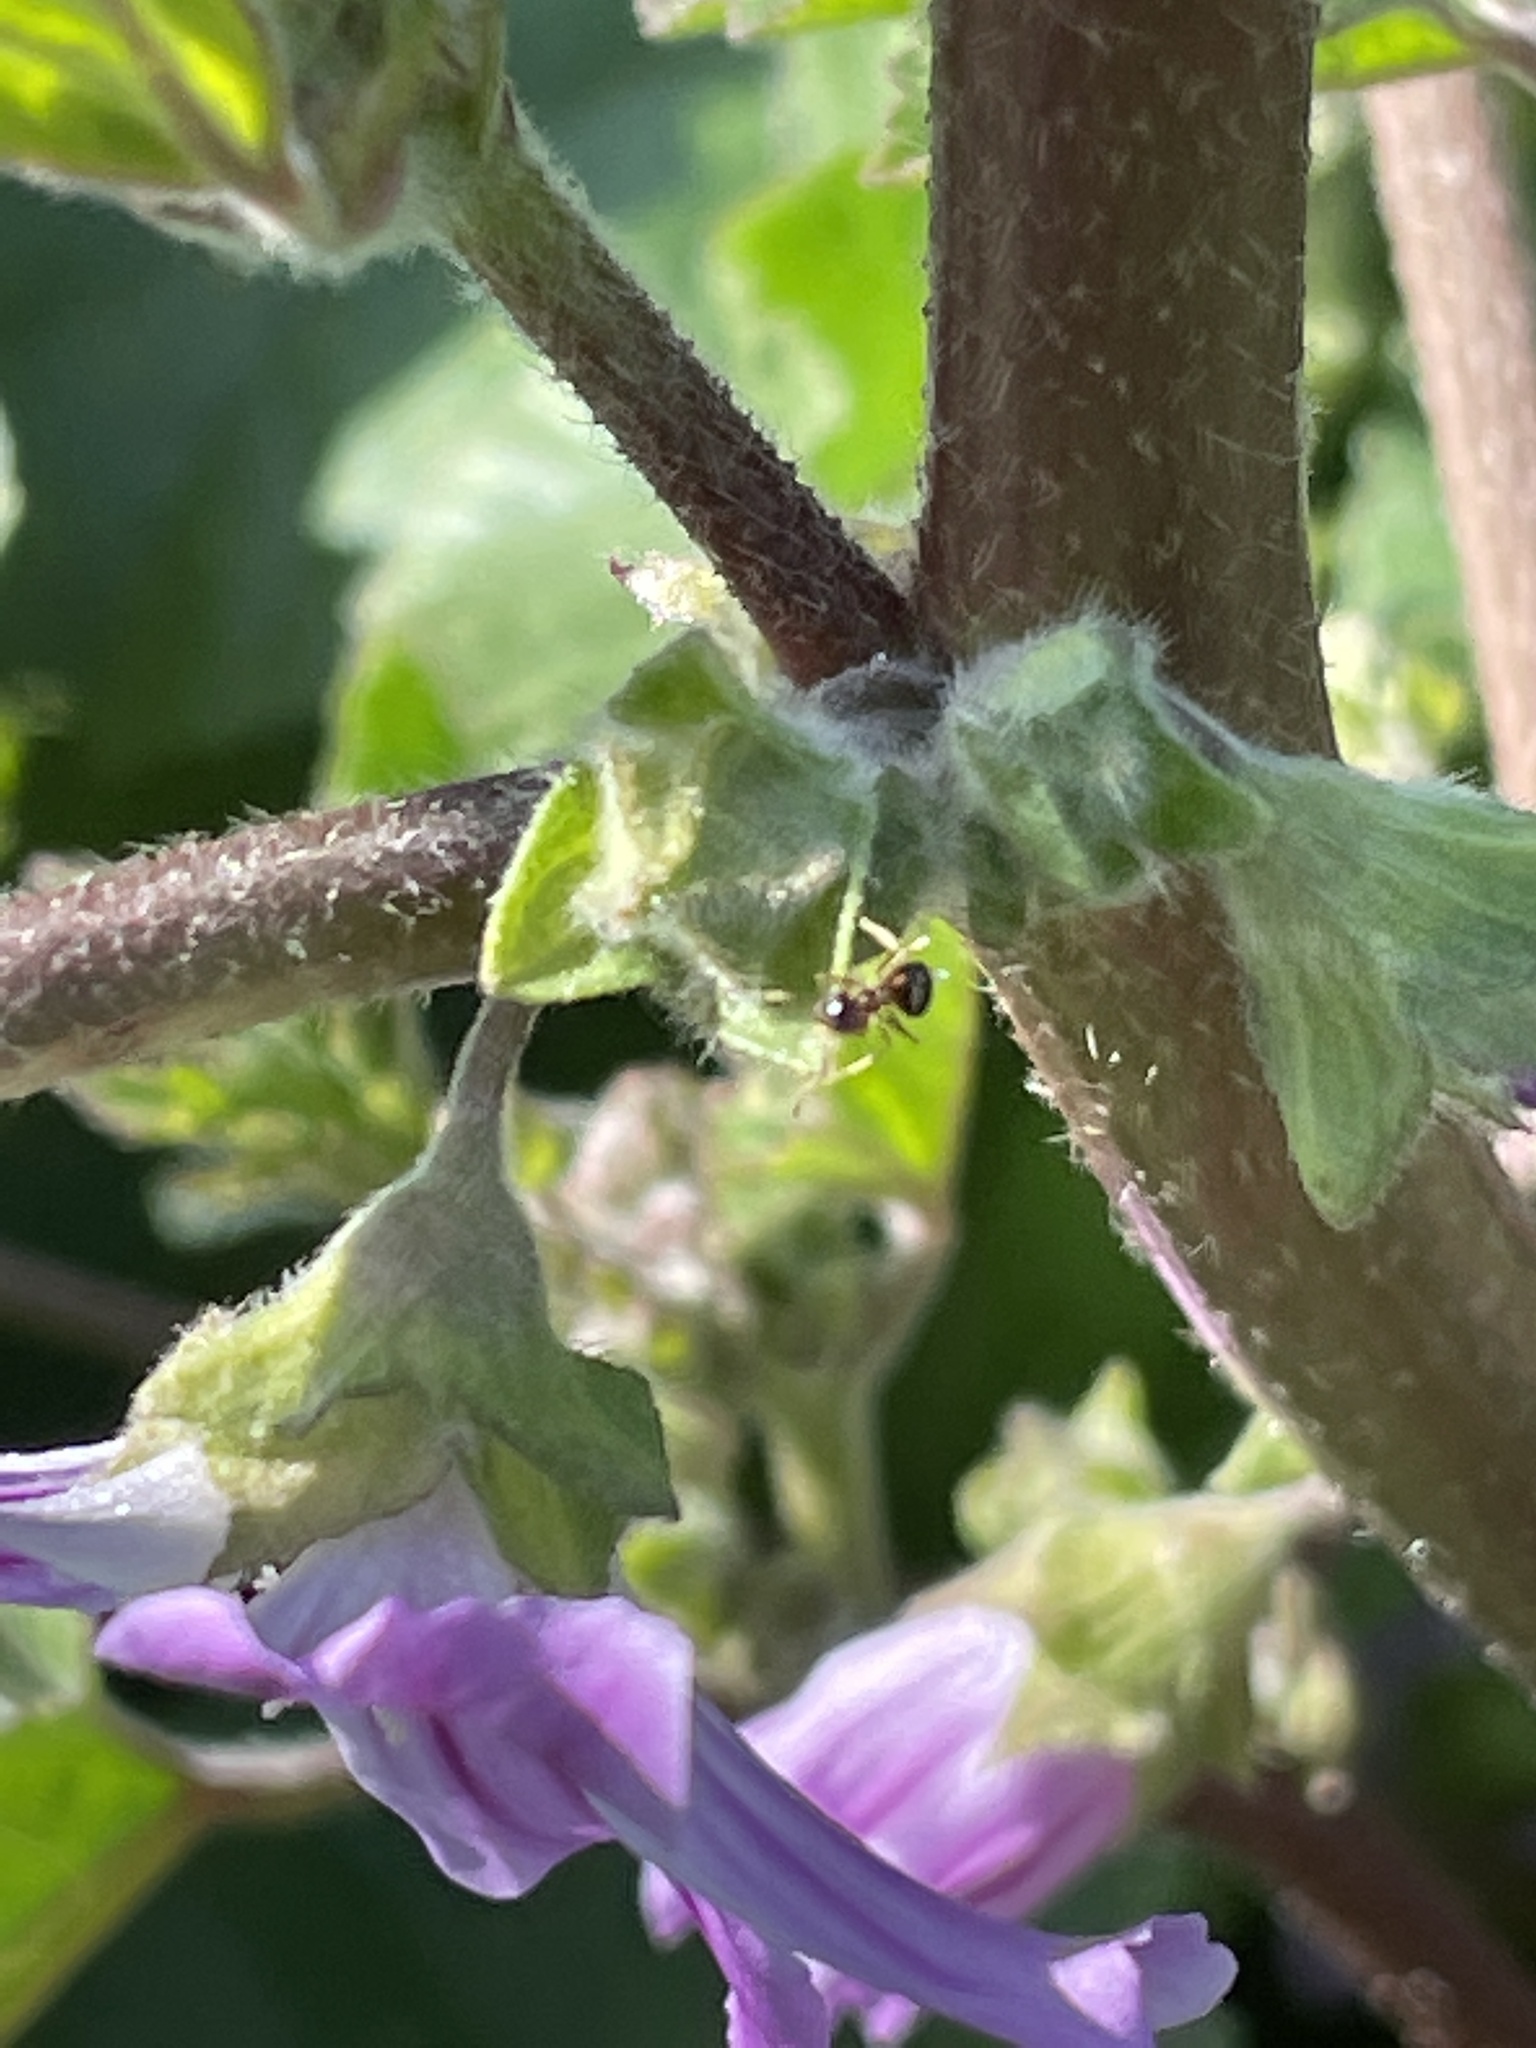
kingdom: Animalia
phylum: Arthropoda
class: Insecta
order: Hymenoptera
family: Formicidae
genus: Prenolepis
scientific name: Prenolepis imparis
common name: Small honey ant
